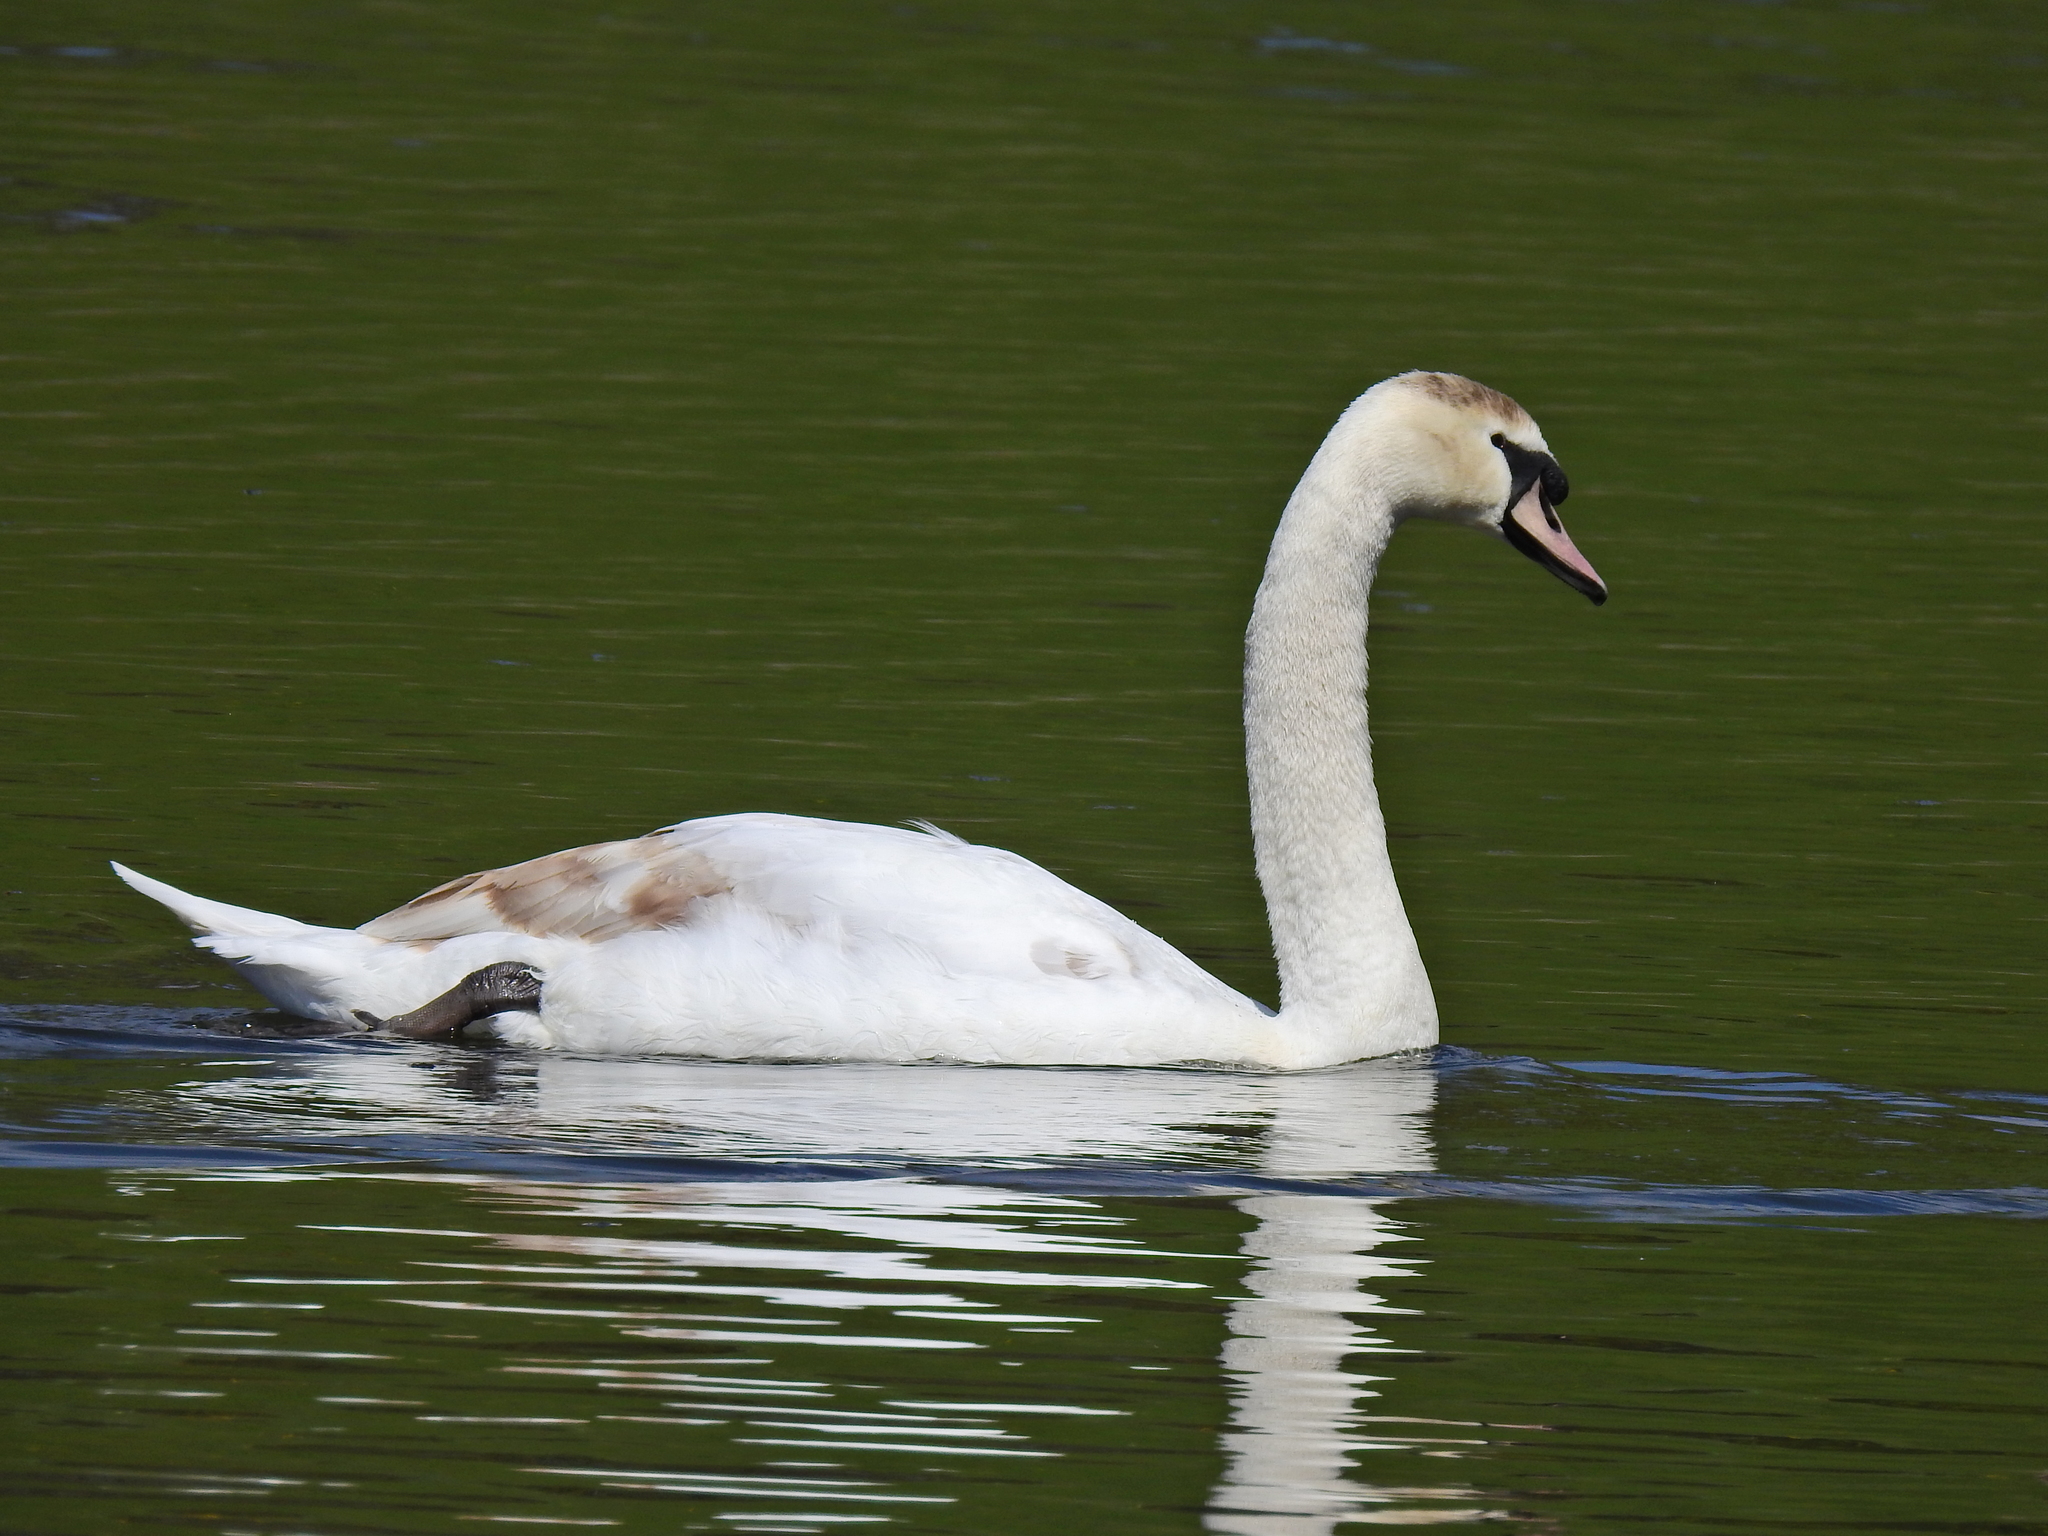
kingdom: Animalia
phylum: Chordata
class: Aves
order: Anseriformes
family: Anatidae
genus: Cygnus
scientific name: Cygnus olor
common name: Mute swan
